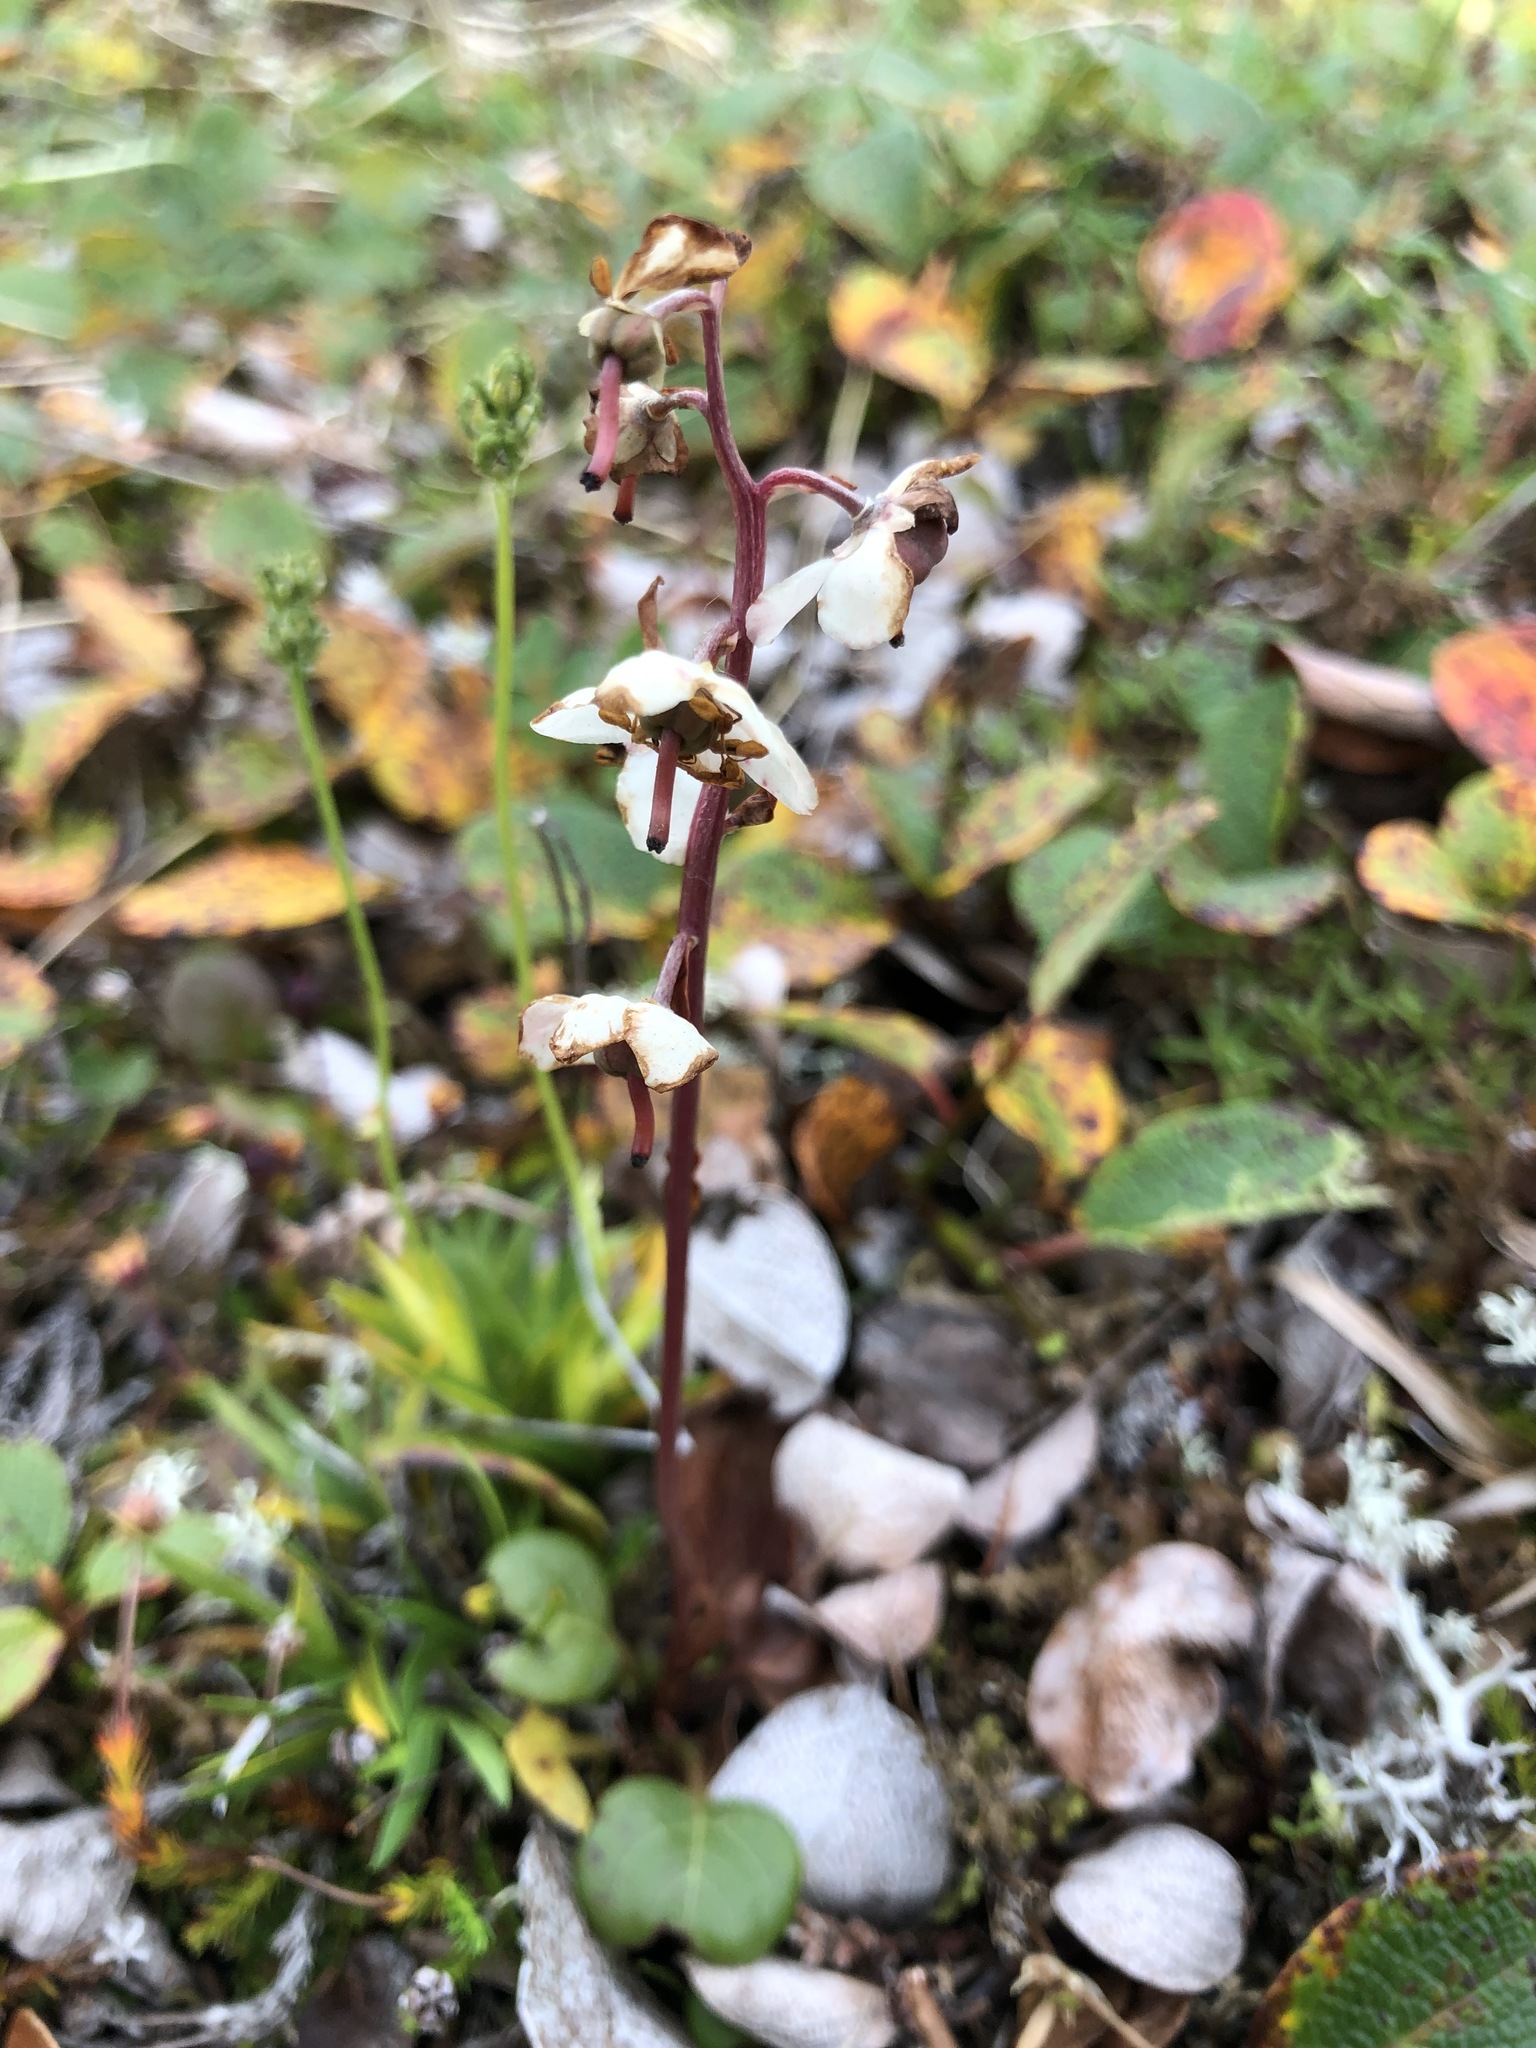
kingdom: Plantae
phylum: Tracheophyta
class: Magnoliopsida
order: Ericales
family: Ericaceae
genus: Pyrola
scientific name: Pyrola grandiflora
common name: Arctic pyrola
